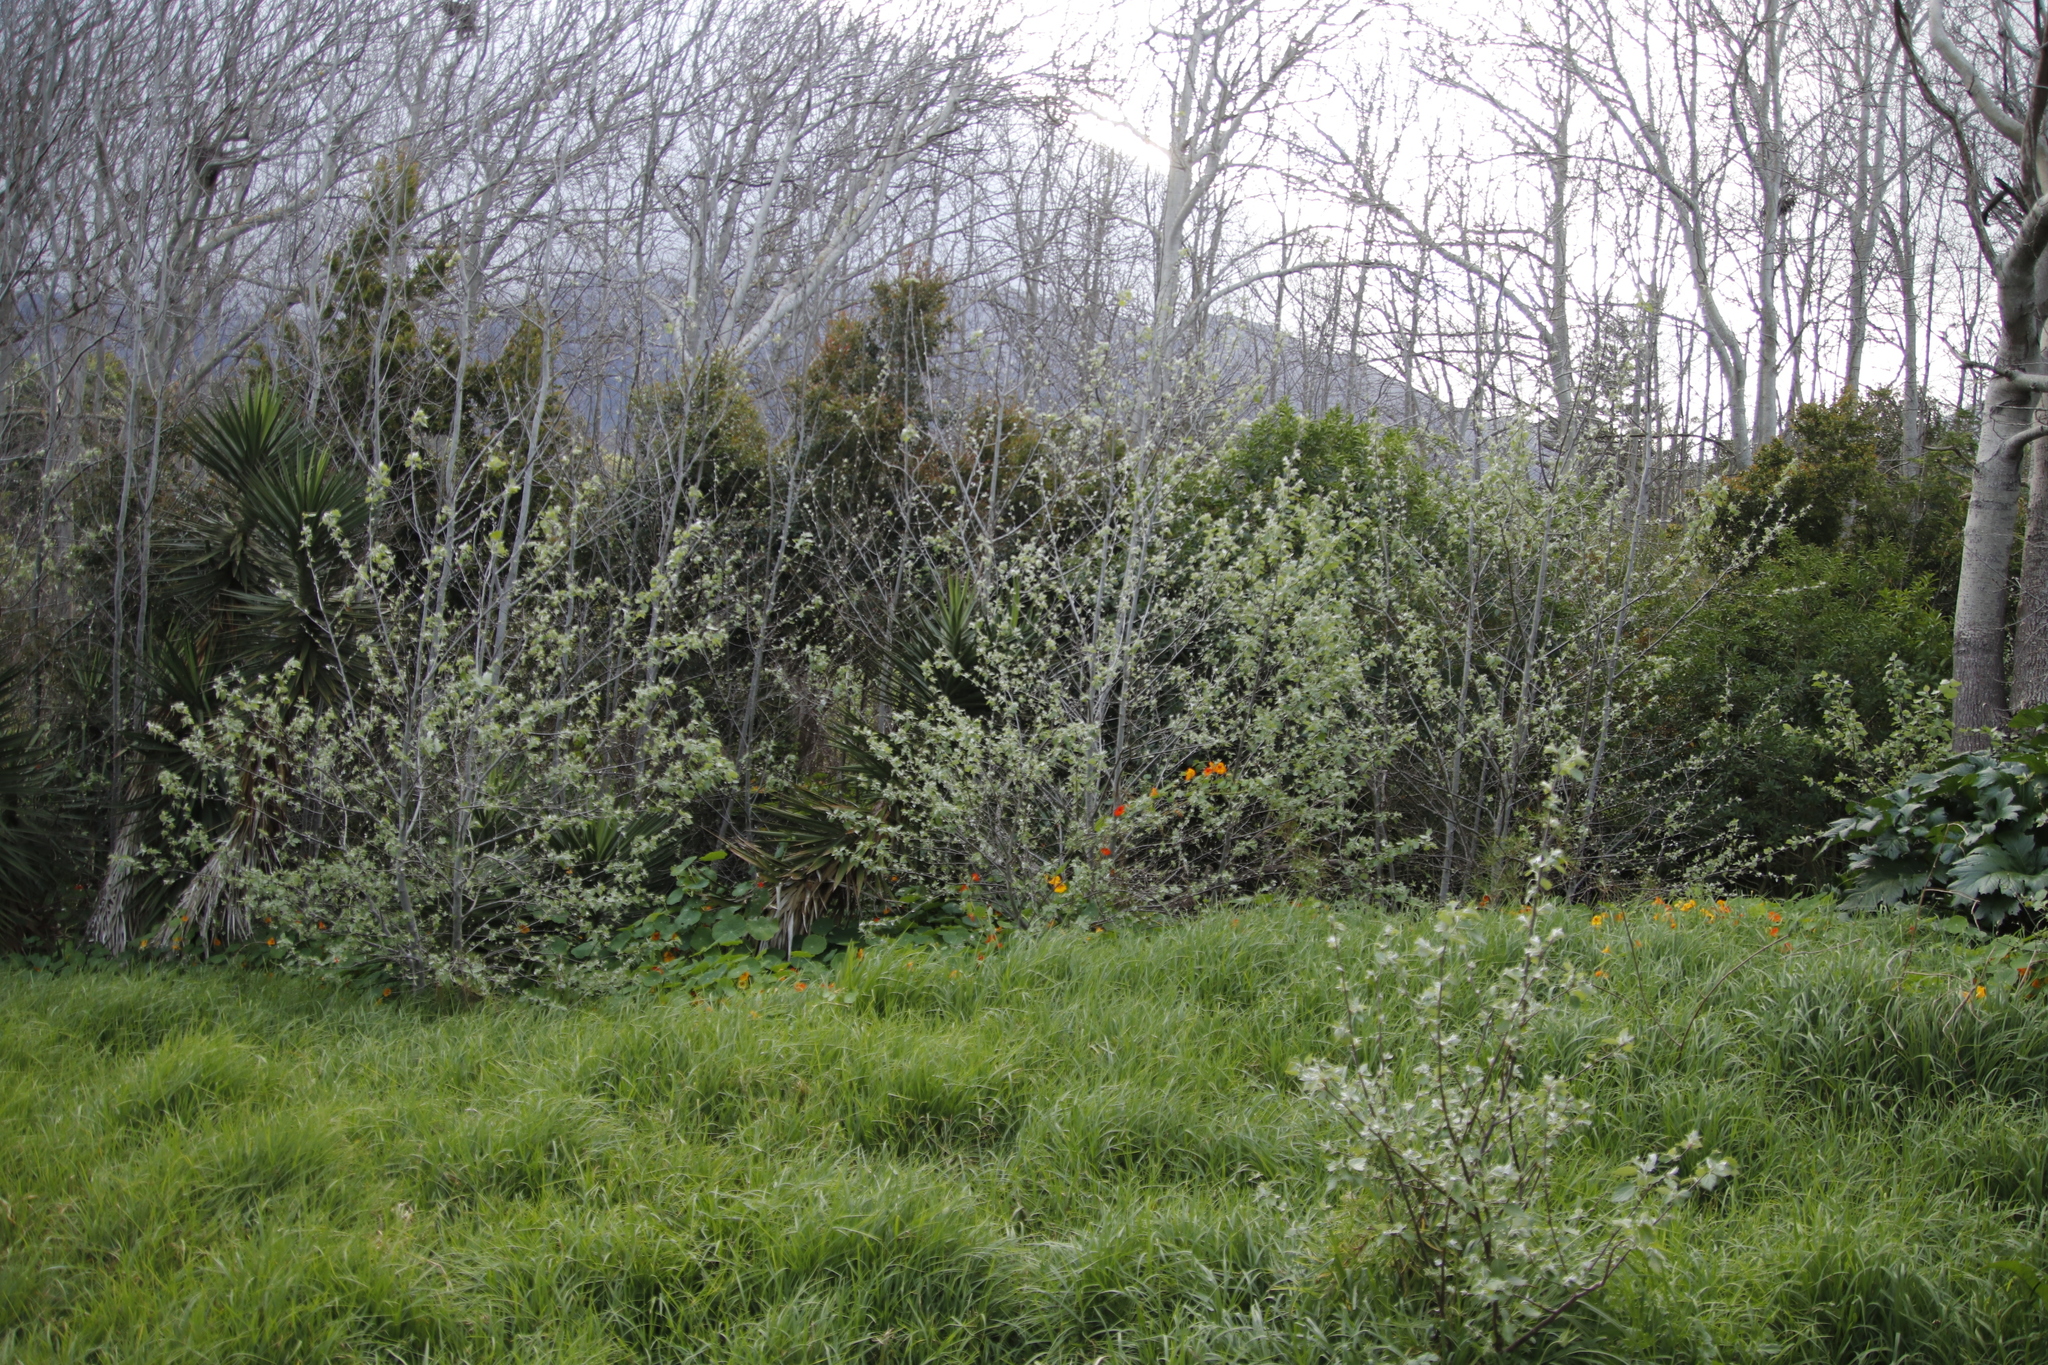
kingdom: Plantae
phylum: Tracheophyta
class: Magnoliopsida
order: Malpighiales
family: Salicaceae
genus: Populus
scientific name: Populus alba
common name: White poplar
